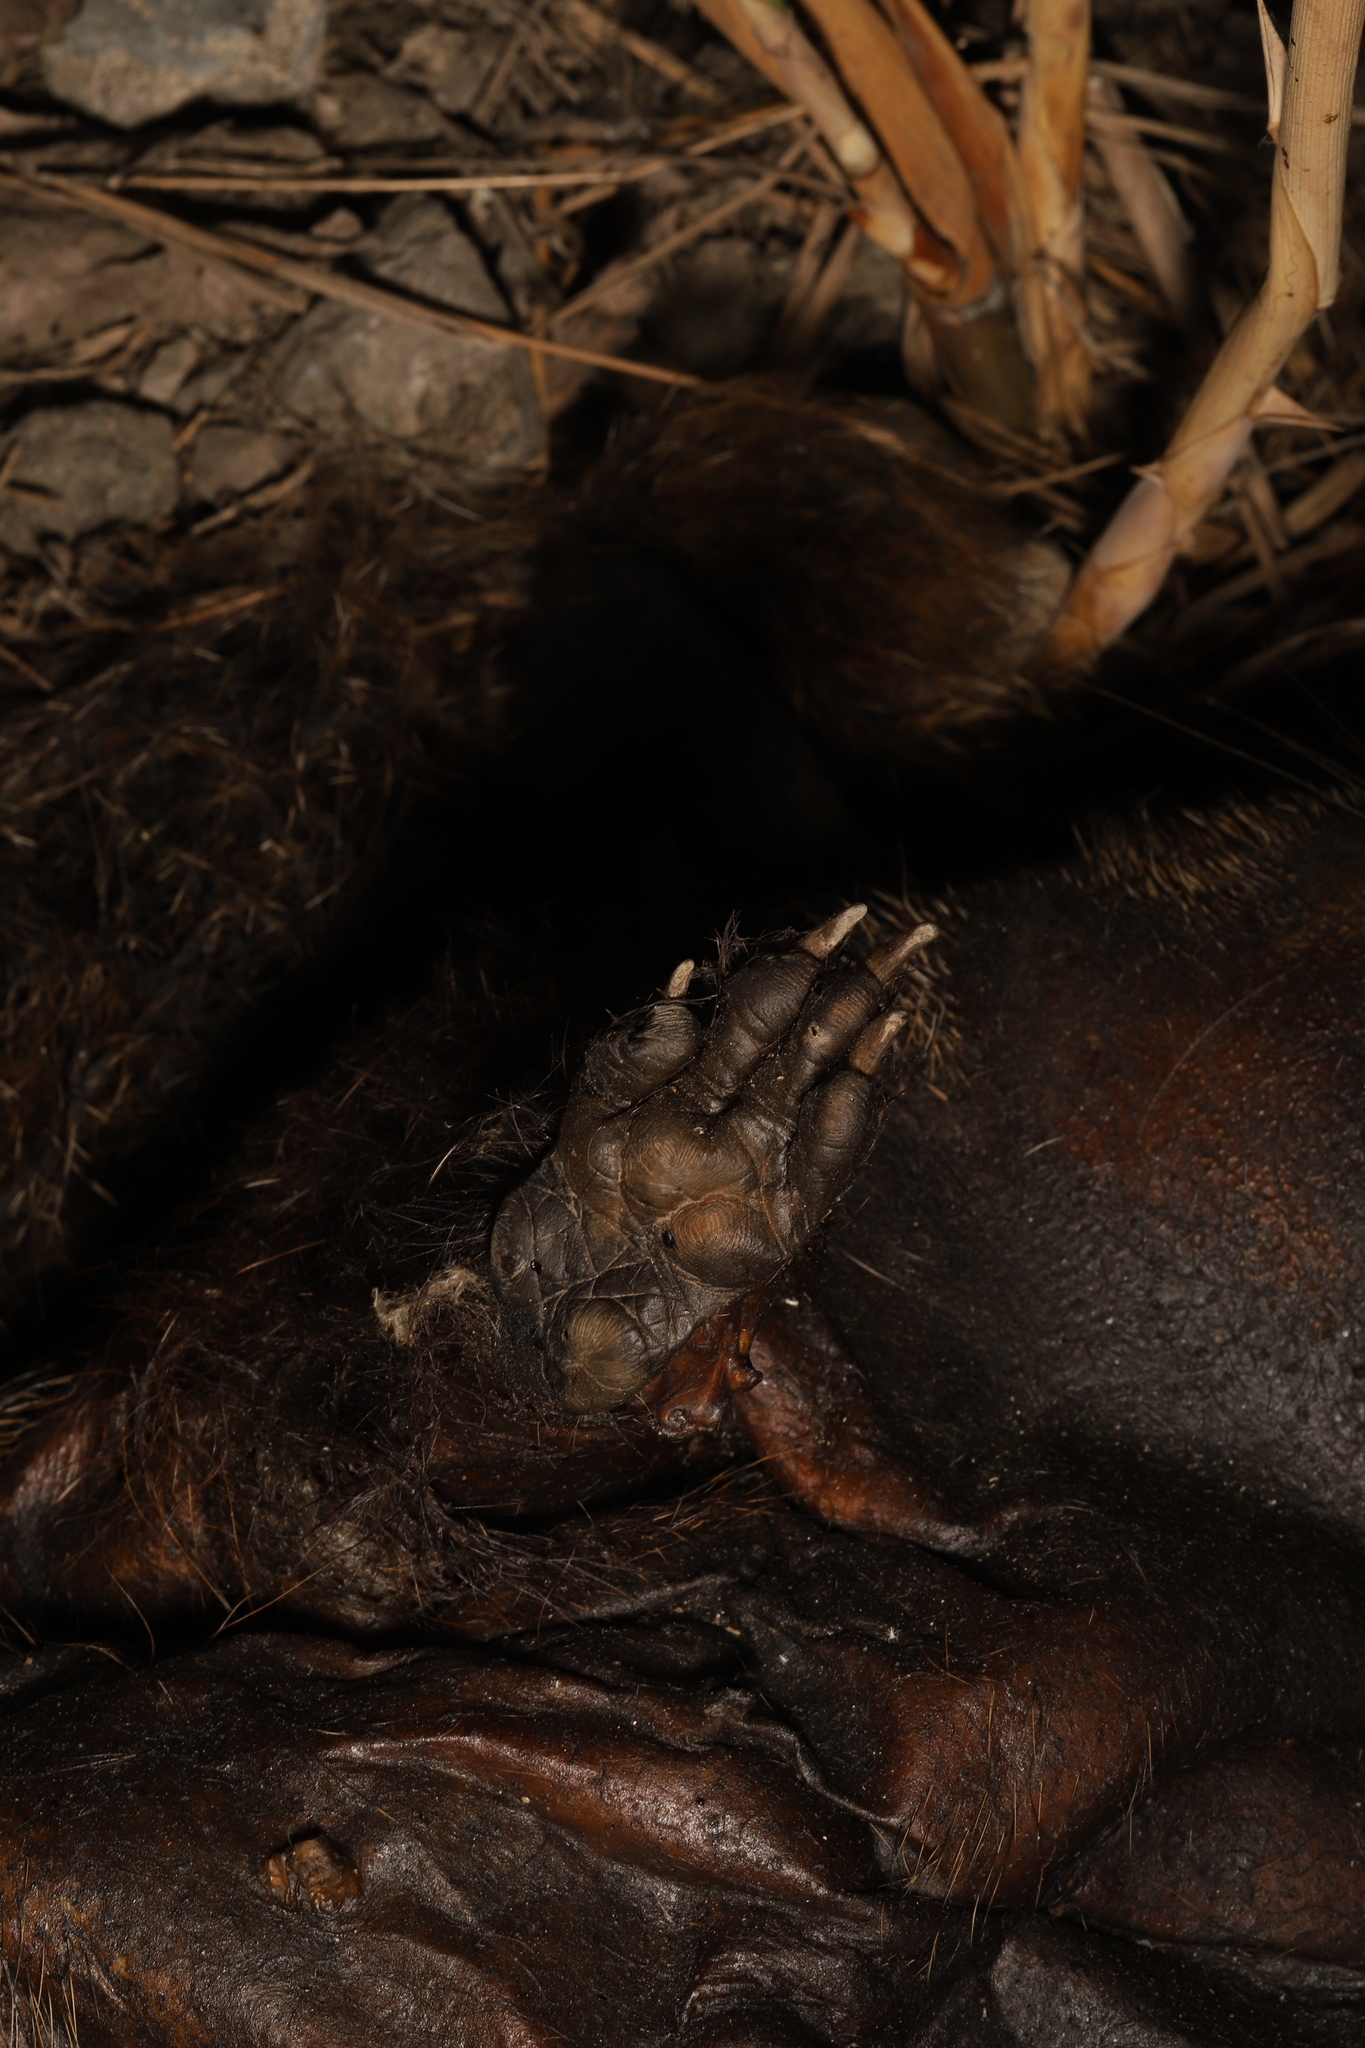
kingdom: Animalia
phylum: Chordata
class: Mammalia
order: Rodentia
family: Cricetidae
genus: Ondatra
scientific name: Ondatra zibethicus
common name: Muskrat
